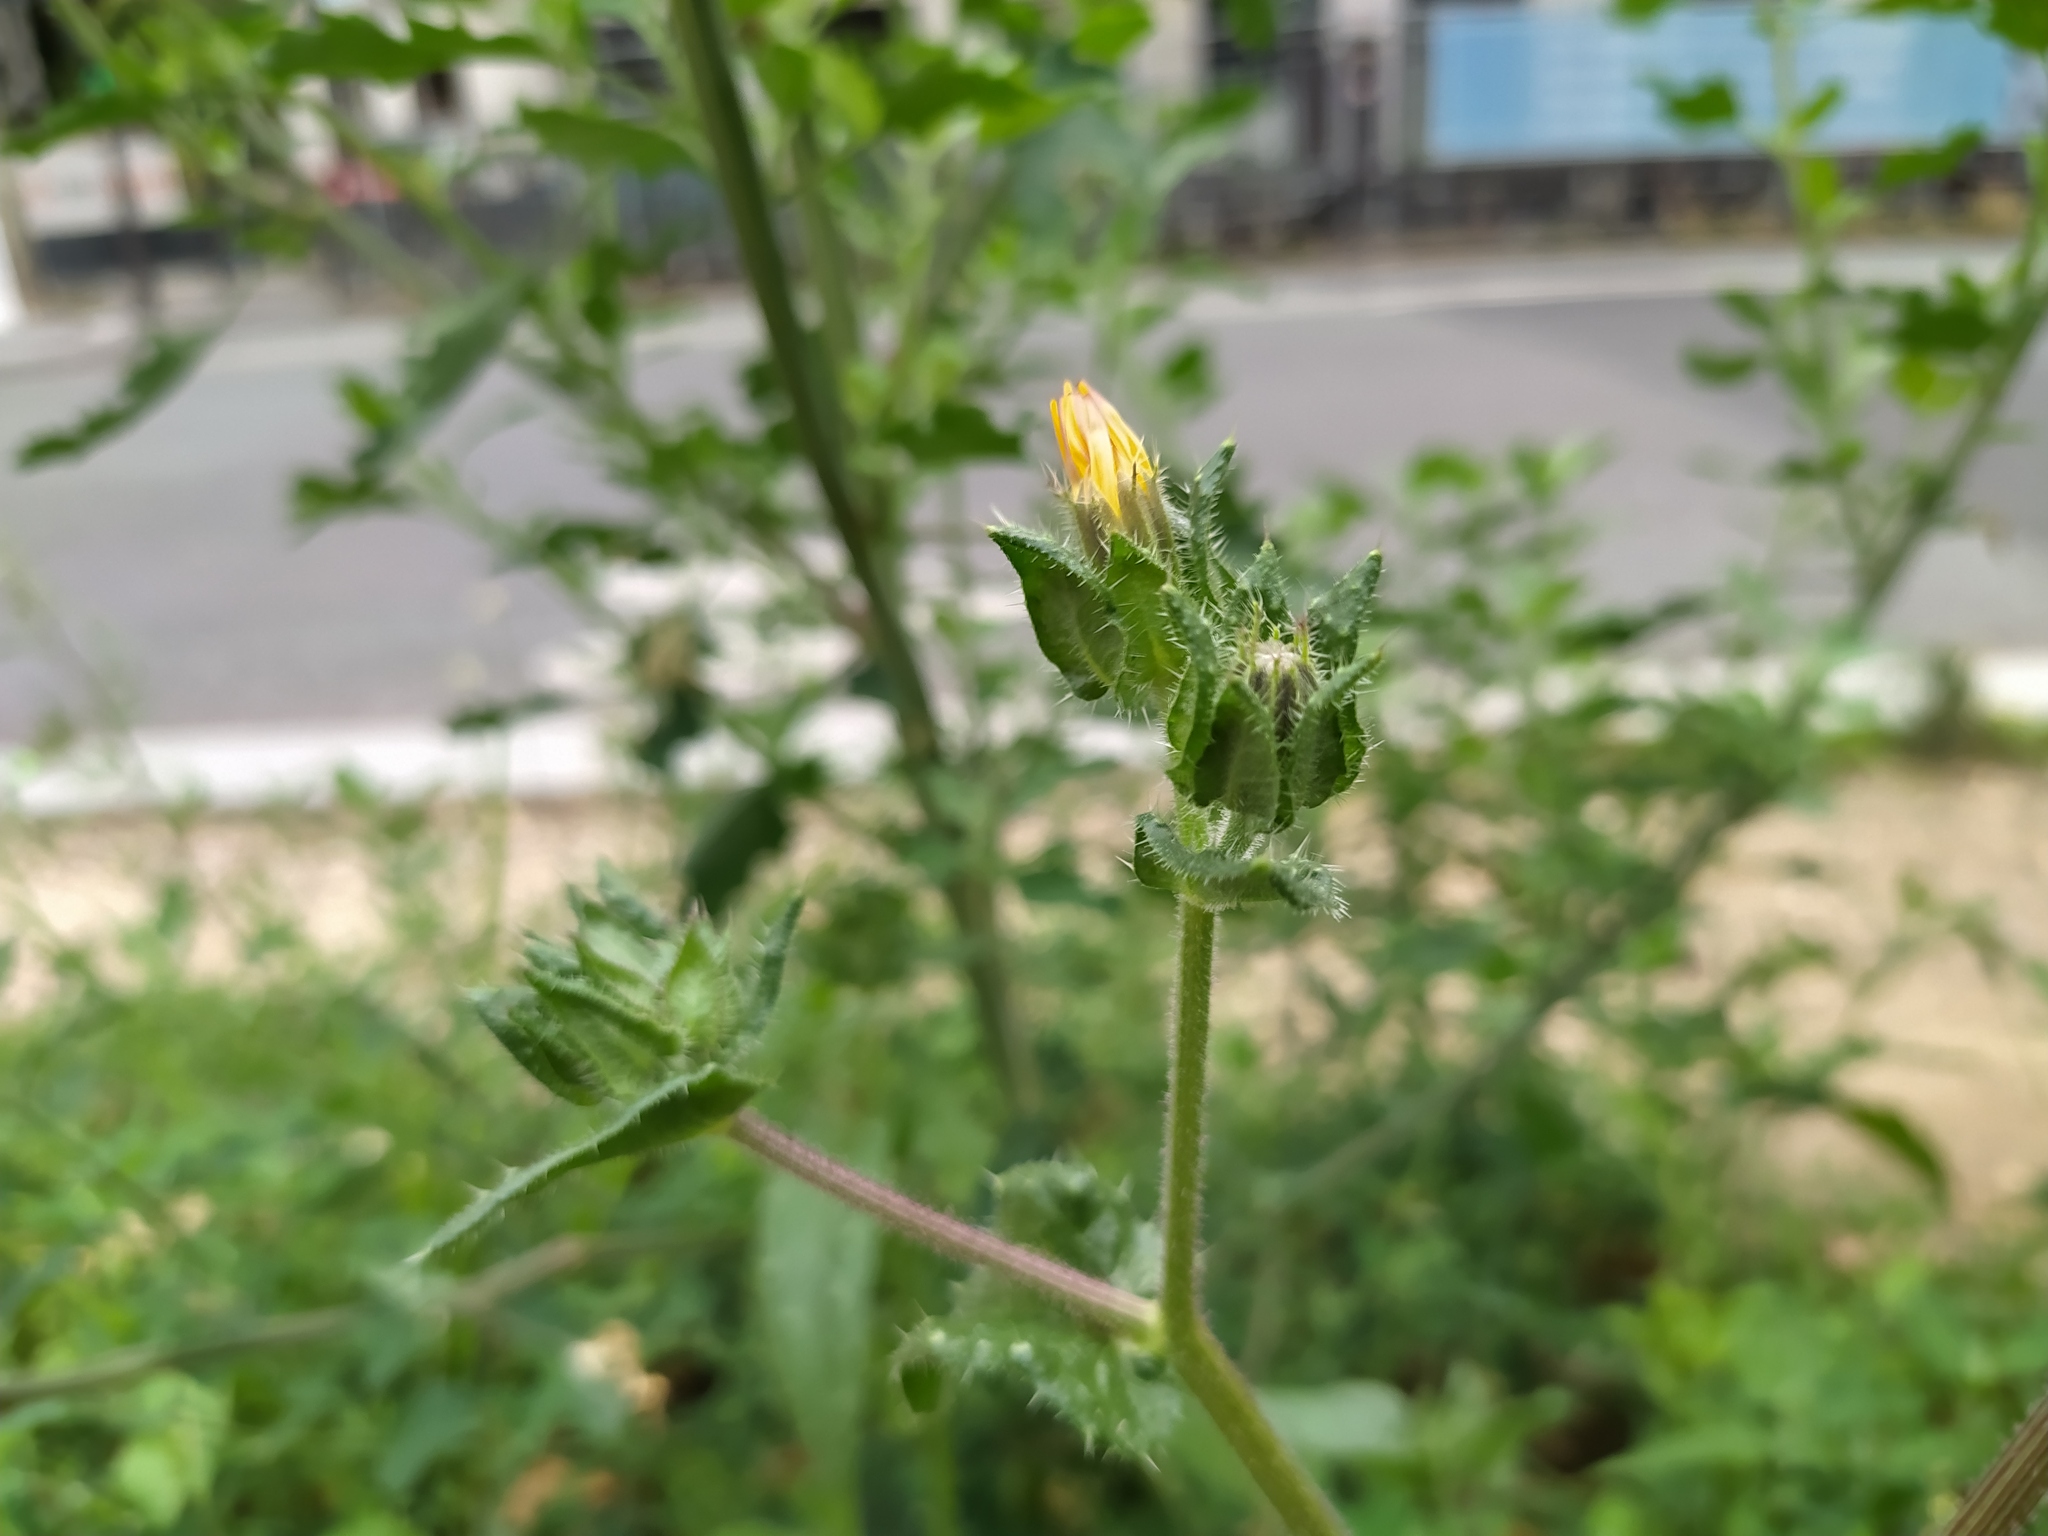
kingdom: Plantae
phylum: Tracheophyta
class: Magnoliopsida
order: Asterales
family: Asteraceae
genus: Helminthotheca
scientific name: Helminthotheca echioides
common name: Ox-tongue
